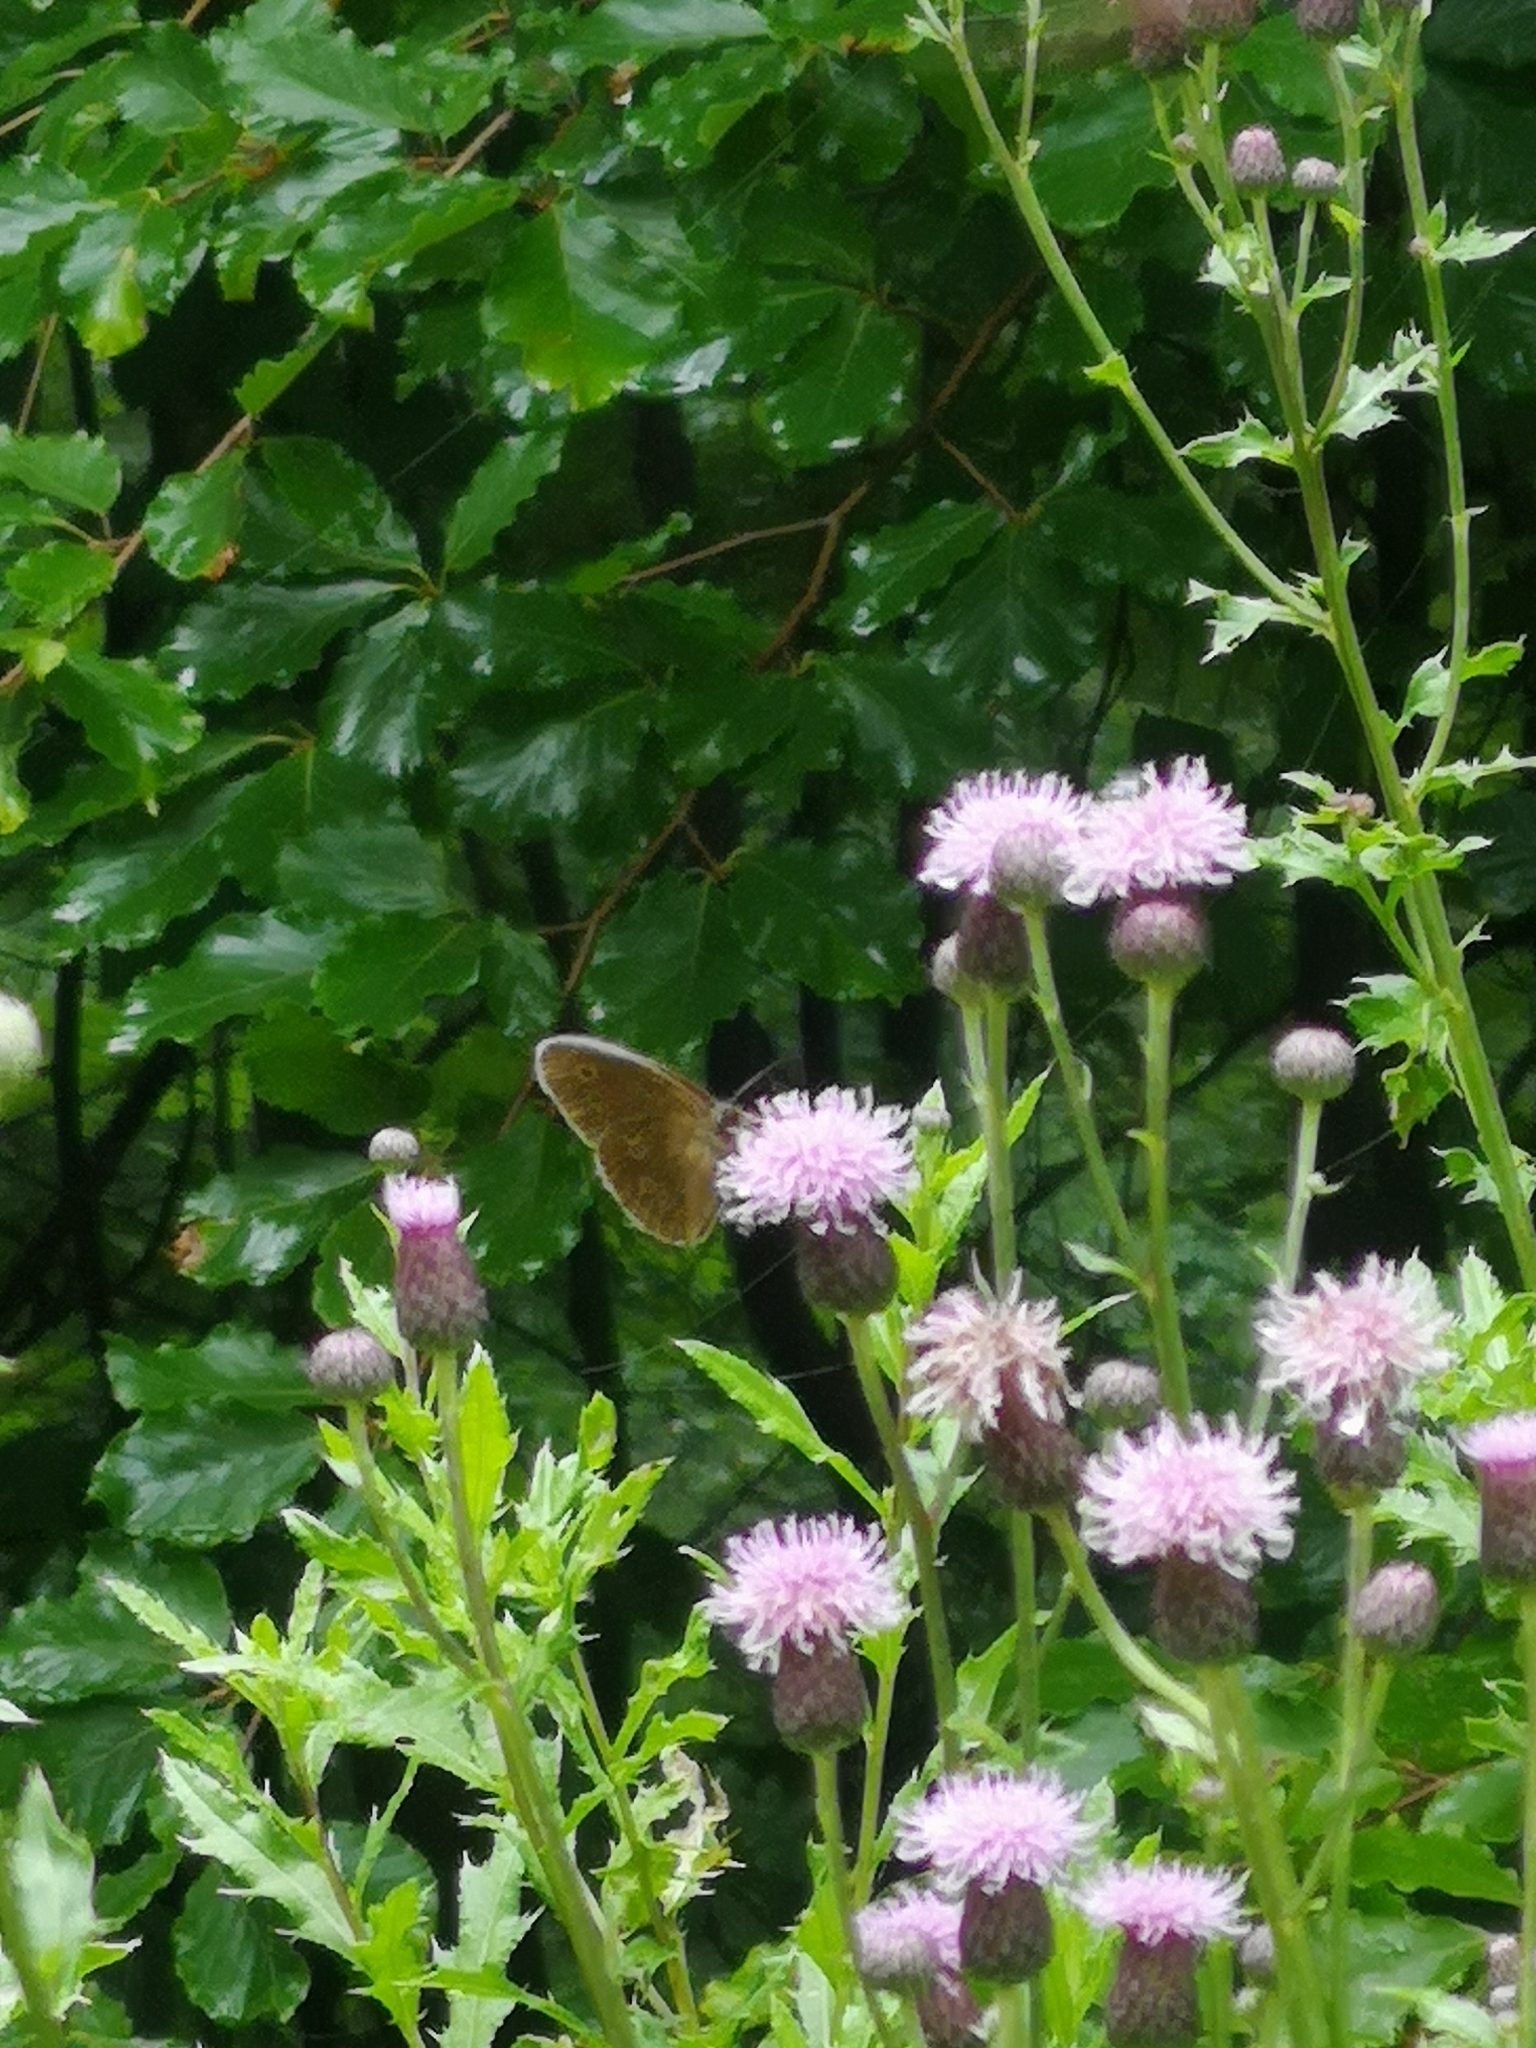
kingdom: Animalia
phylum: Arthropoda
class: Insecta
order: Lepidoptera
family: Nymphalidae
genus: Aphantopus
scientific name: Aphantopus hyperantus
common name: Ringlet
